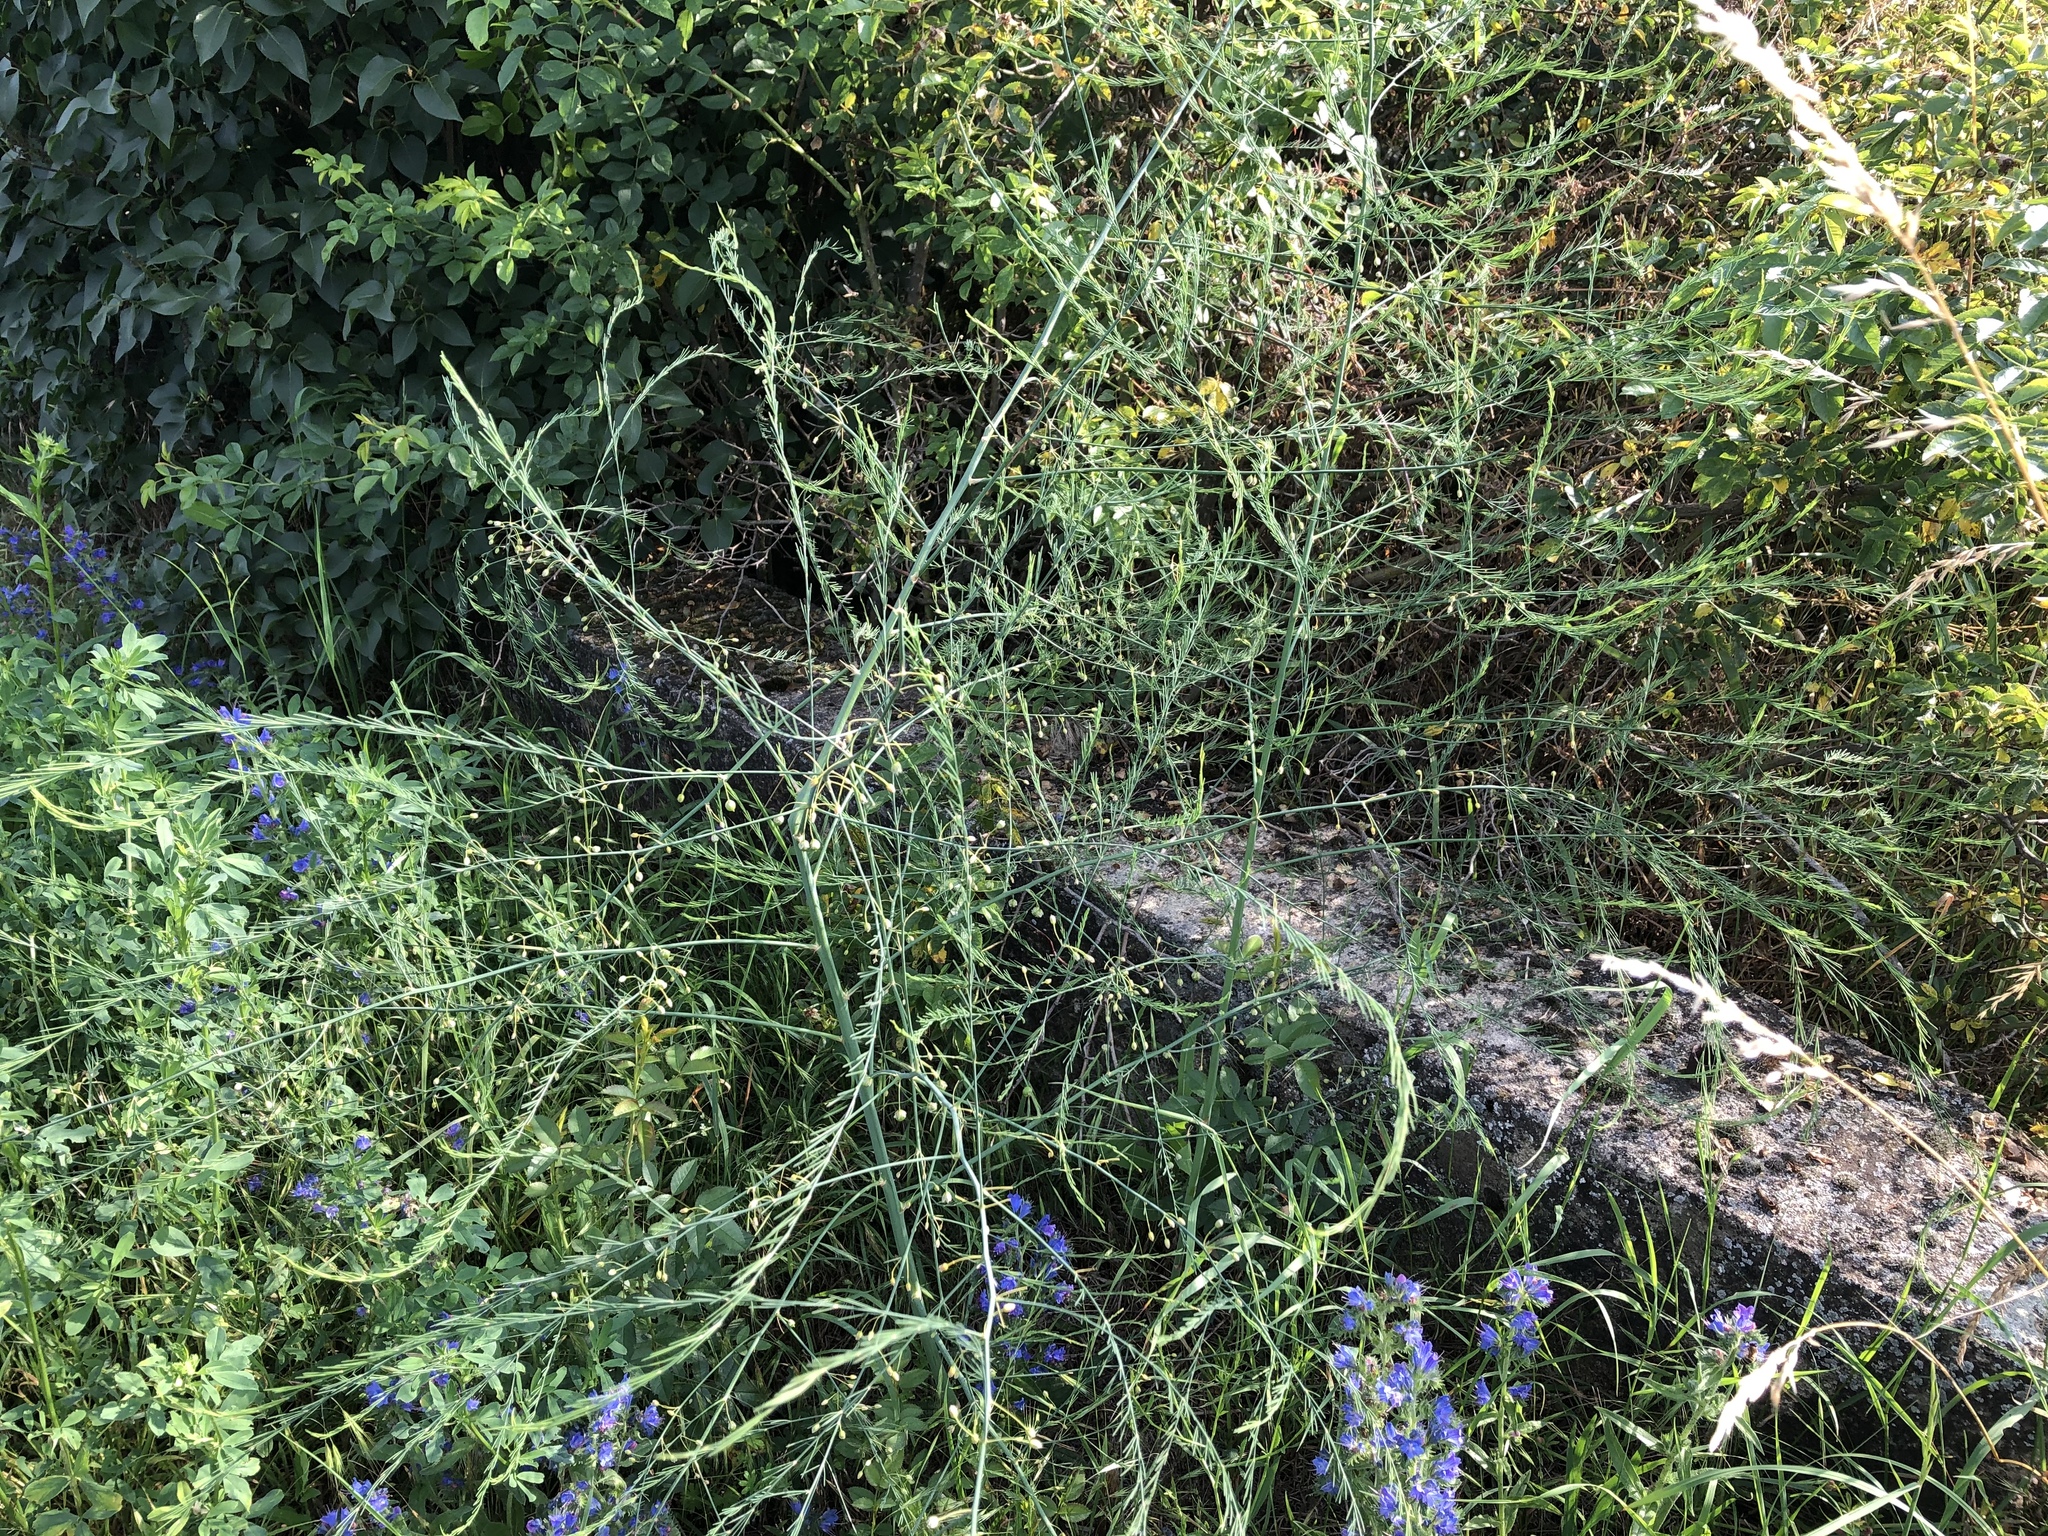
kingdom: Plantae
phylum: Tracheophyta
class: Liliopsida
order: Asparagales
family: Asparagaceae
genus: Asparagus
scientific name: Asparagus officinalis
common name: Garden asparagus
